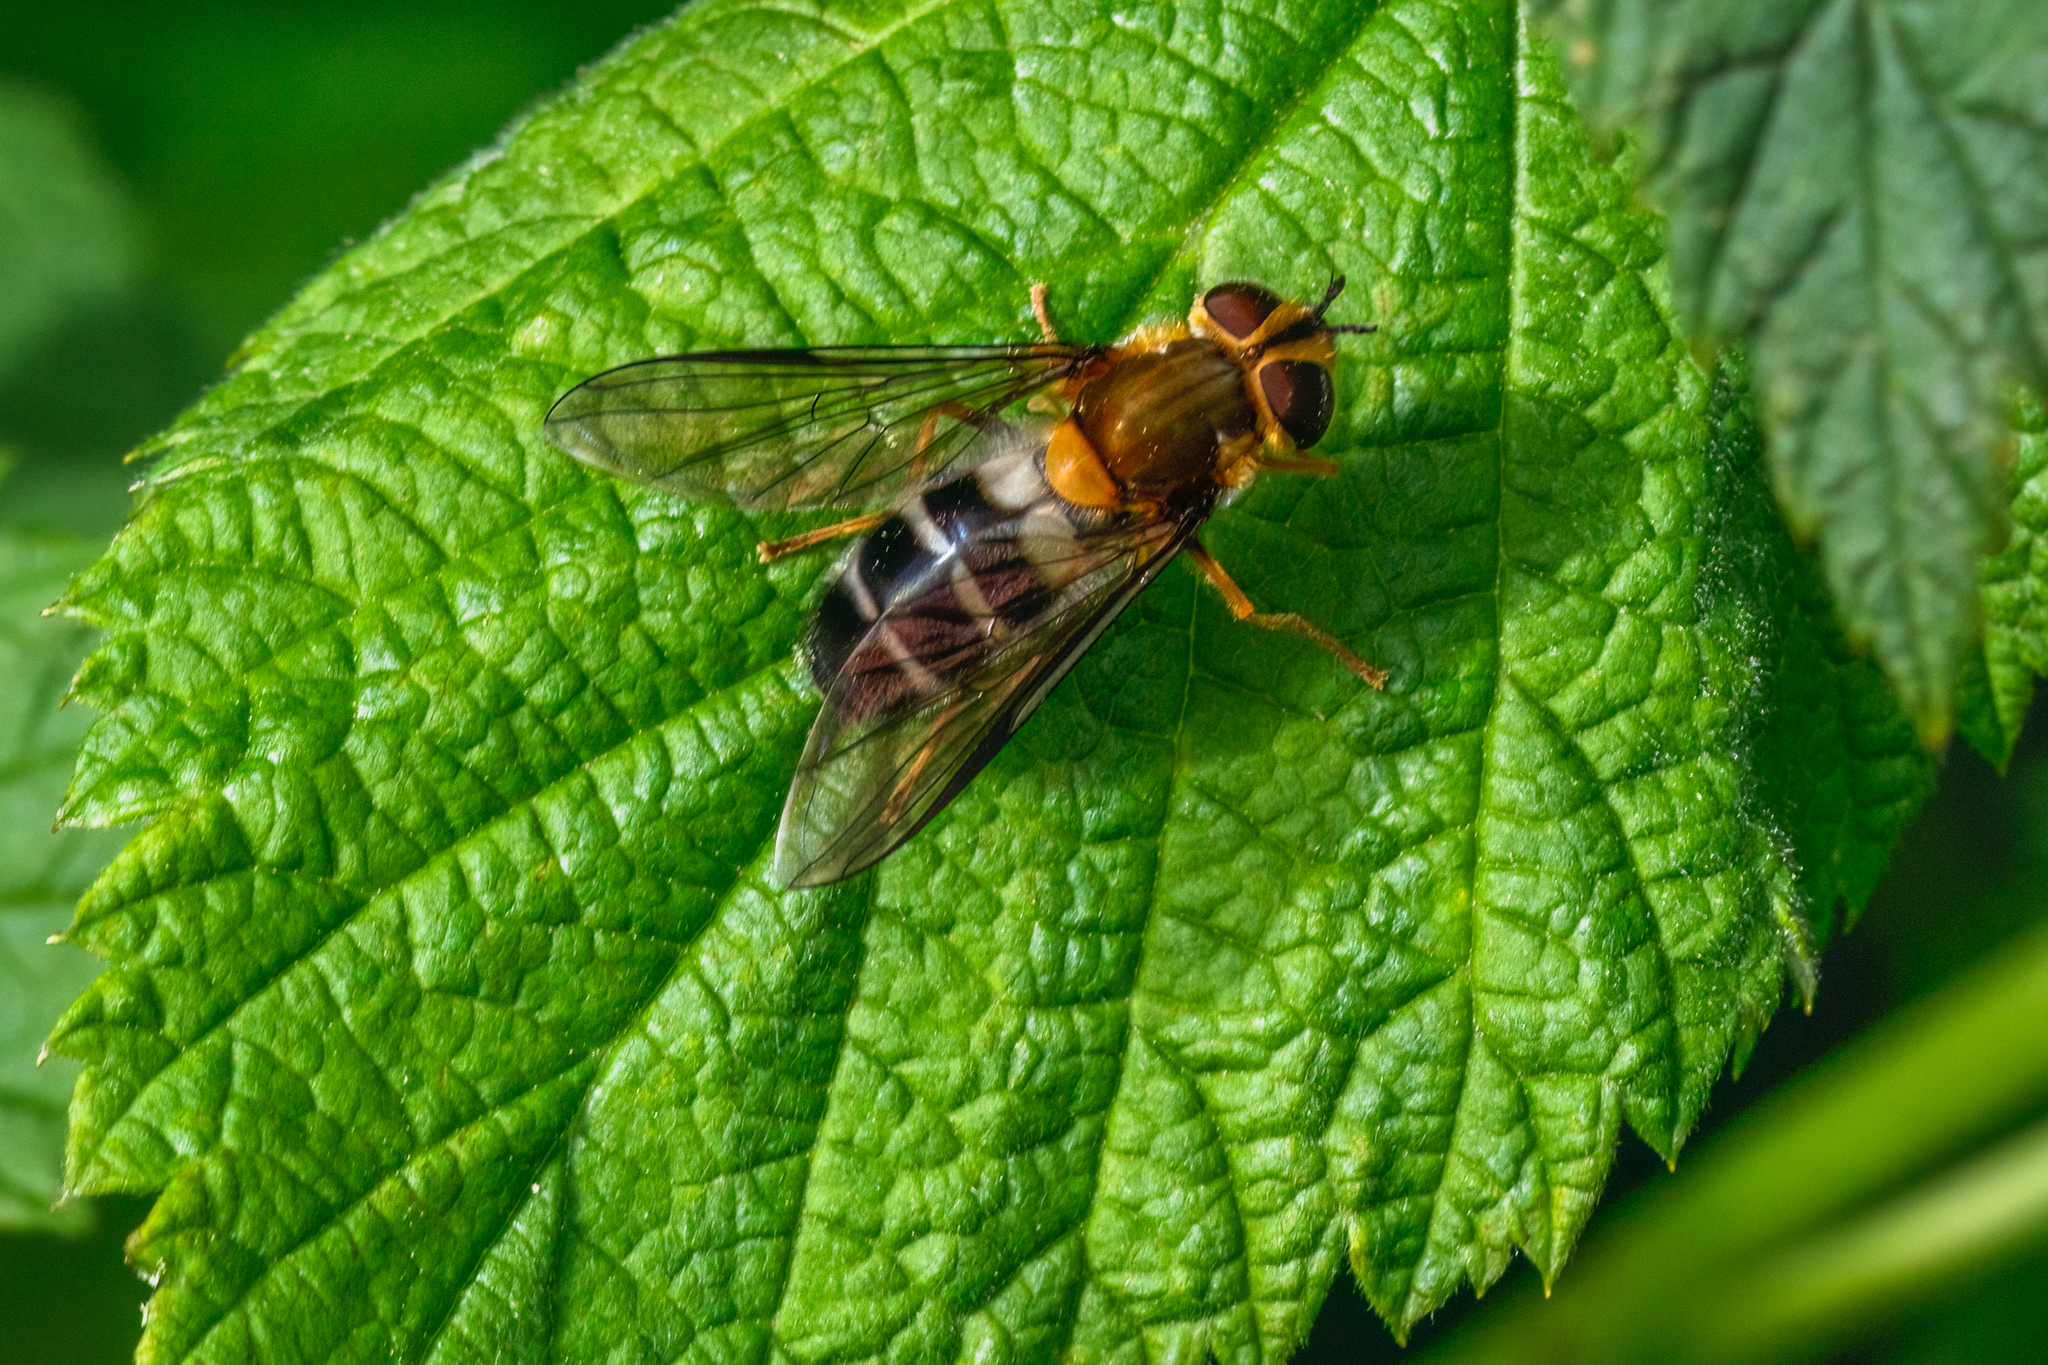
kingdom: Animalia
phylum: Arthropoda
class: Insecta
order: Diptera
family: Syrphidae
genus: Leucozona
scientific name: Leucozona glaucia
